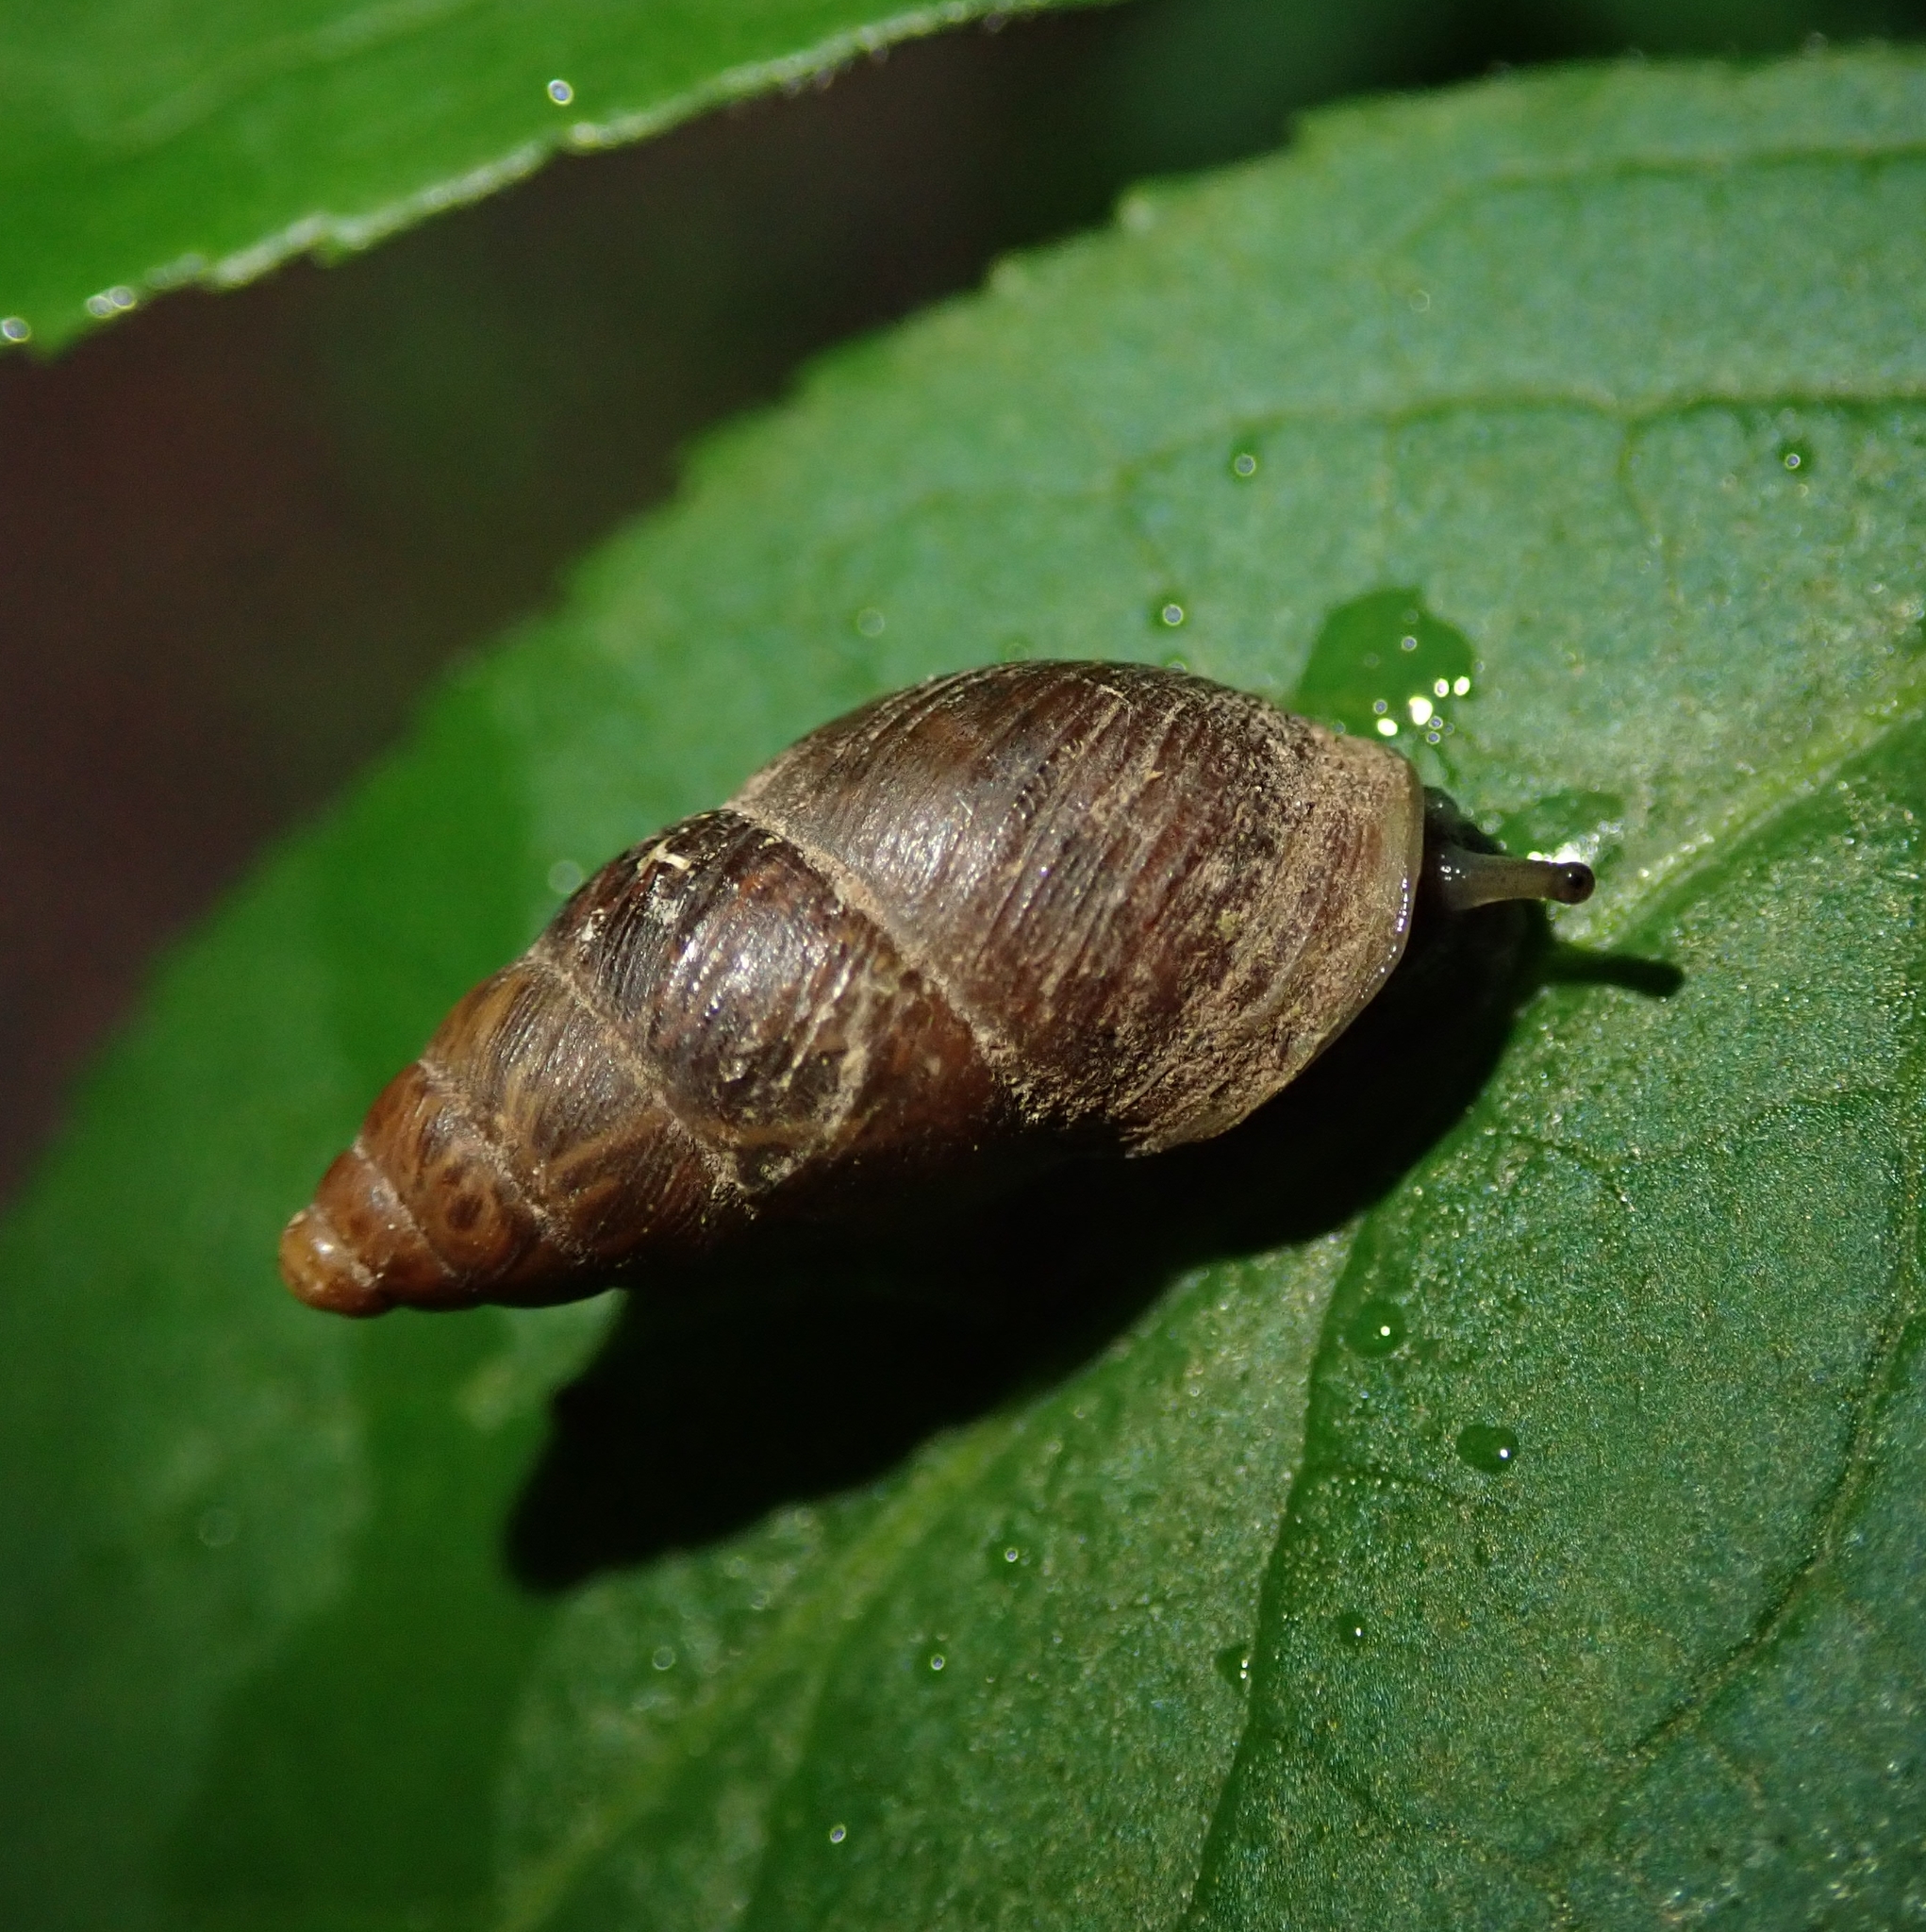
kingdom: Animalia
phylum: Mollusca
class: Gastropoda
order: Stylommatophora
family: Enidae
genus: Ena
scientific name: Ena montana
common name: Mountain bulin
